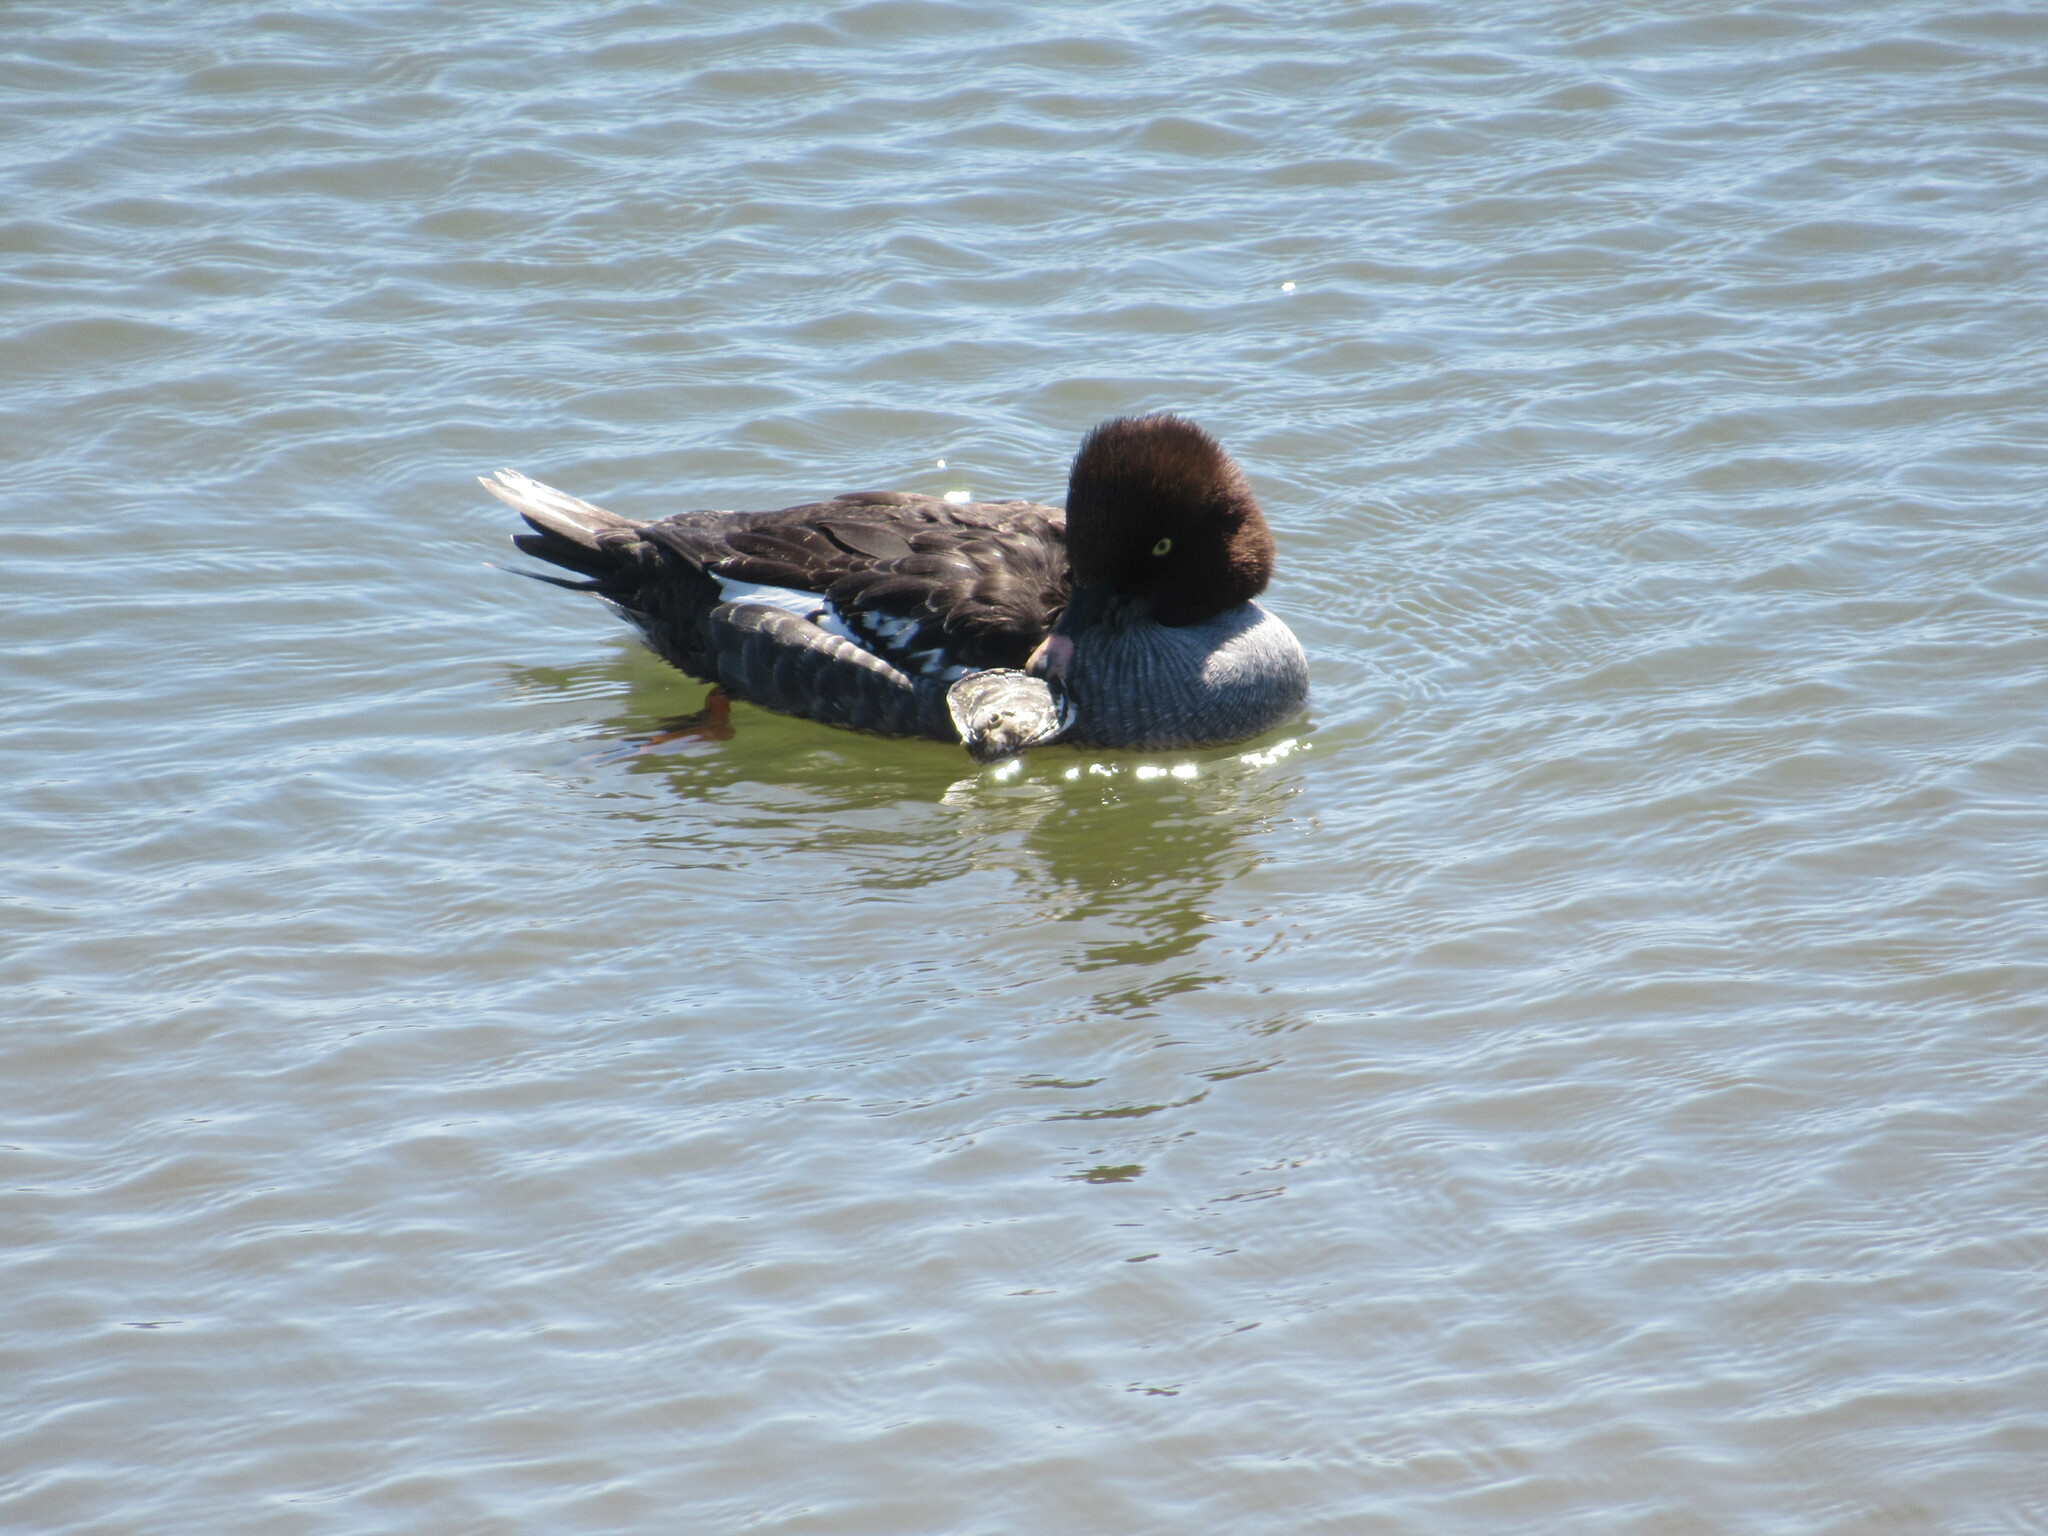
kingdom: Animalia
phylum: Chordata
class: Aves
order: Anseriformes
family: Anatidae
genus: Bucephala
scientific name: Bucephala clangula
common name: Common goldeneye
